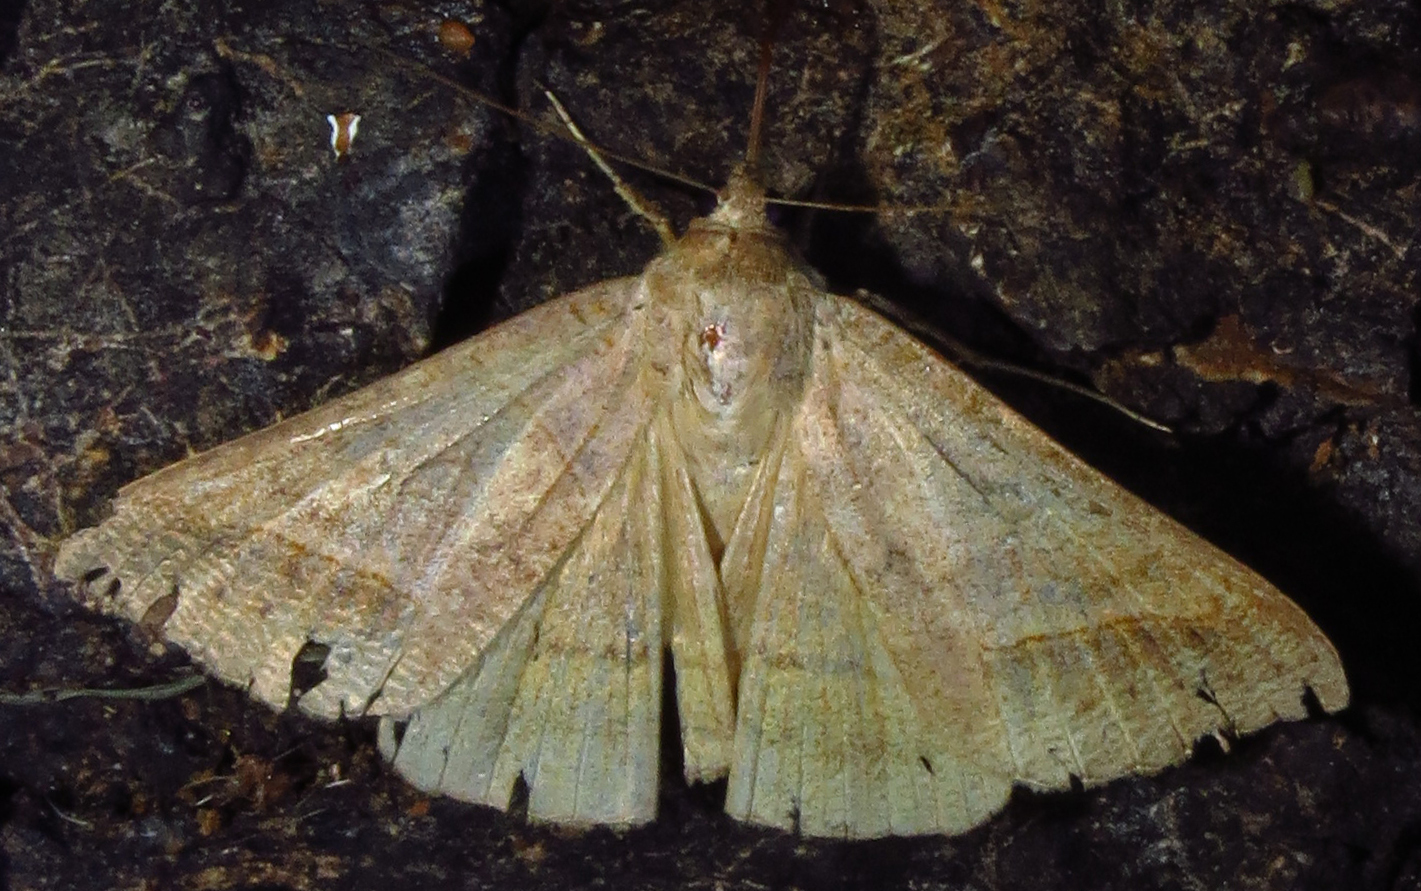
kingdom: Animalia
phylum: Arthropoda
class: Insecta
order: Lepidoptera
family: Erebidae
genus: Mocis
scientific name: Mocis marcida
